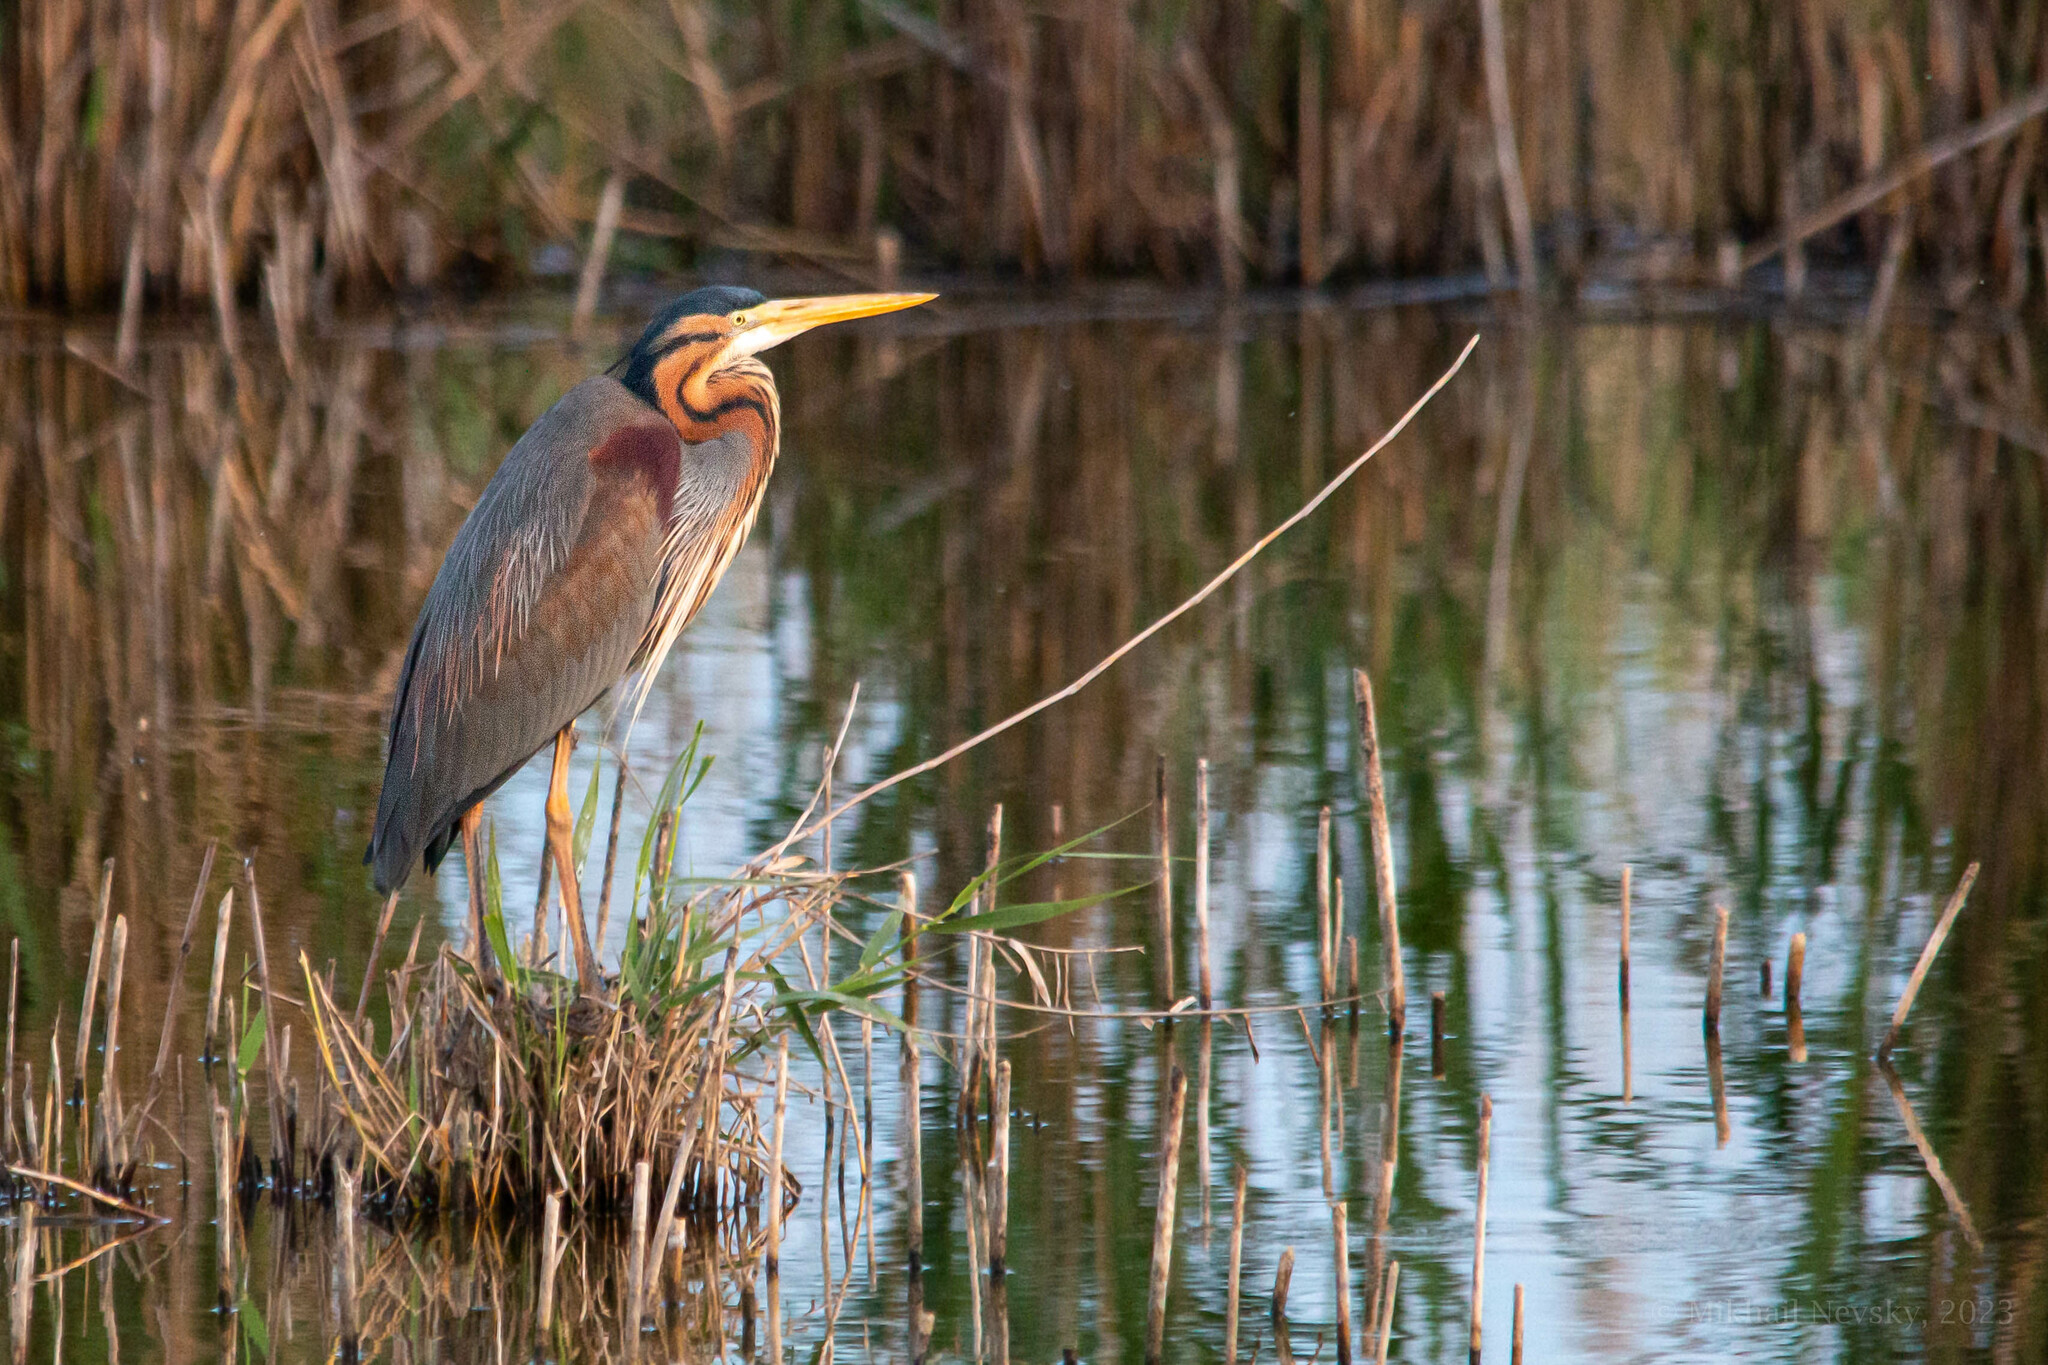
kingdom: Animalia
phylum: Chordata
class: Aves
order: Pelecaniformes
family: Ardeidae
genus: Ardea
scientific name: Ardea purpurea
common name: Purple heron
